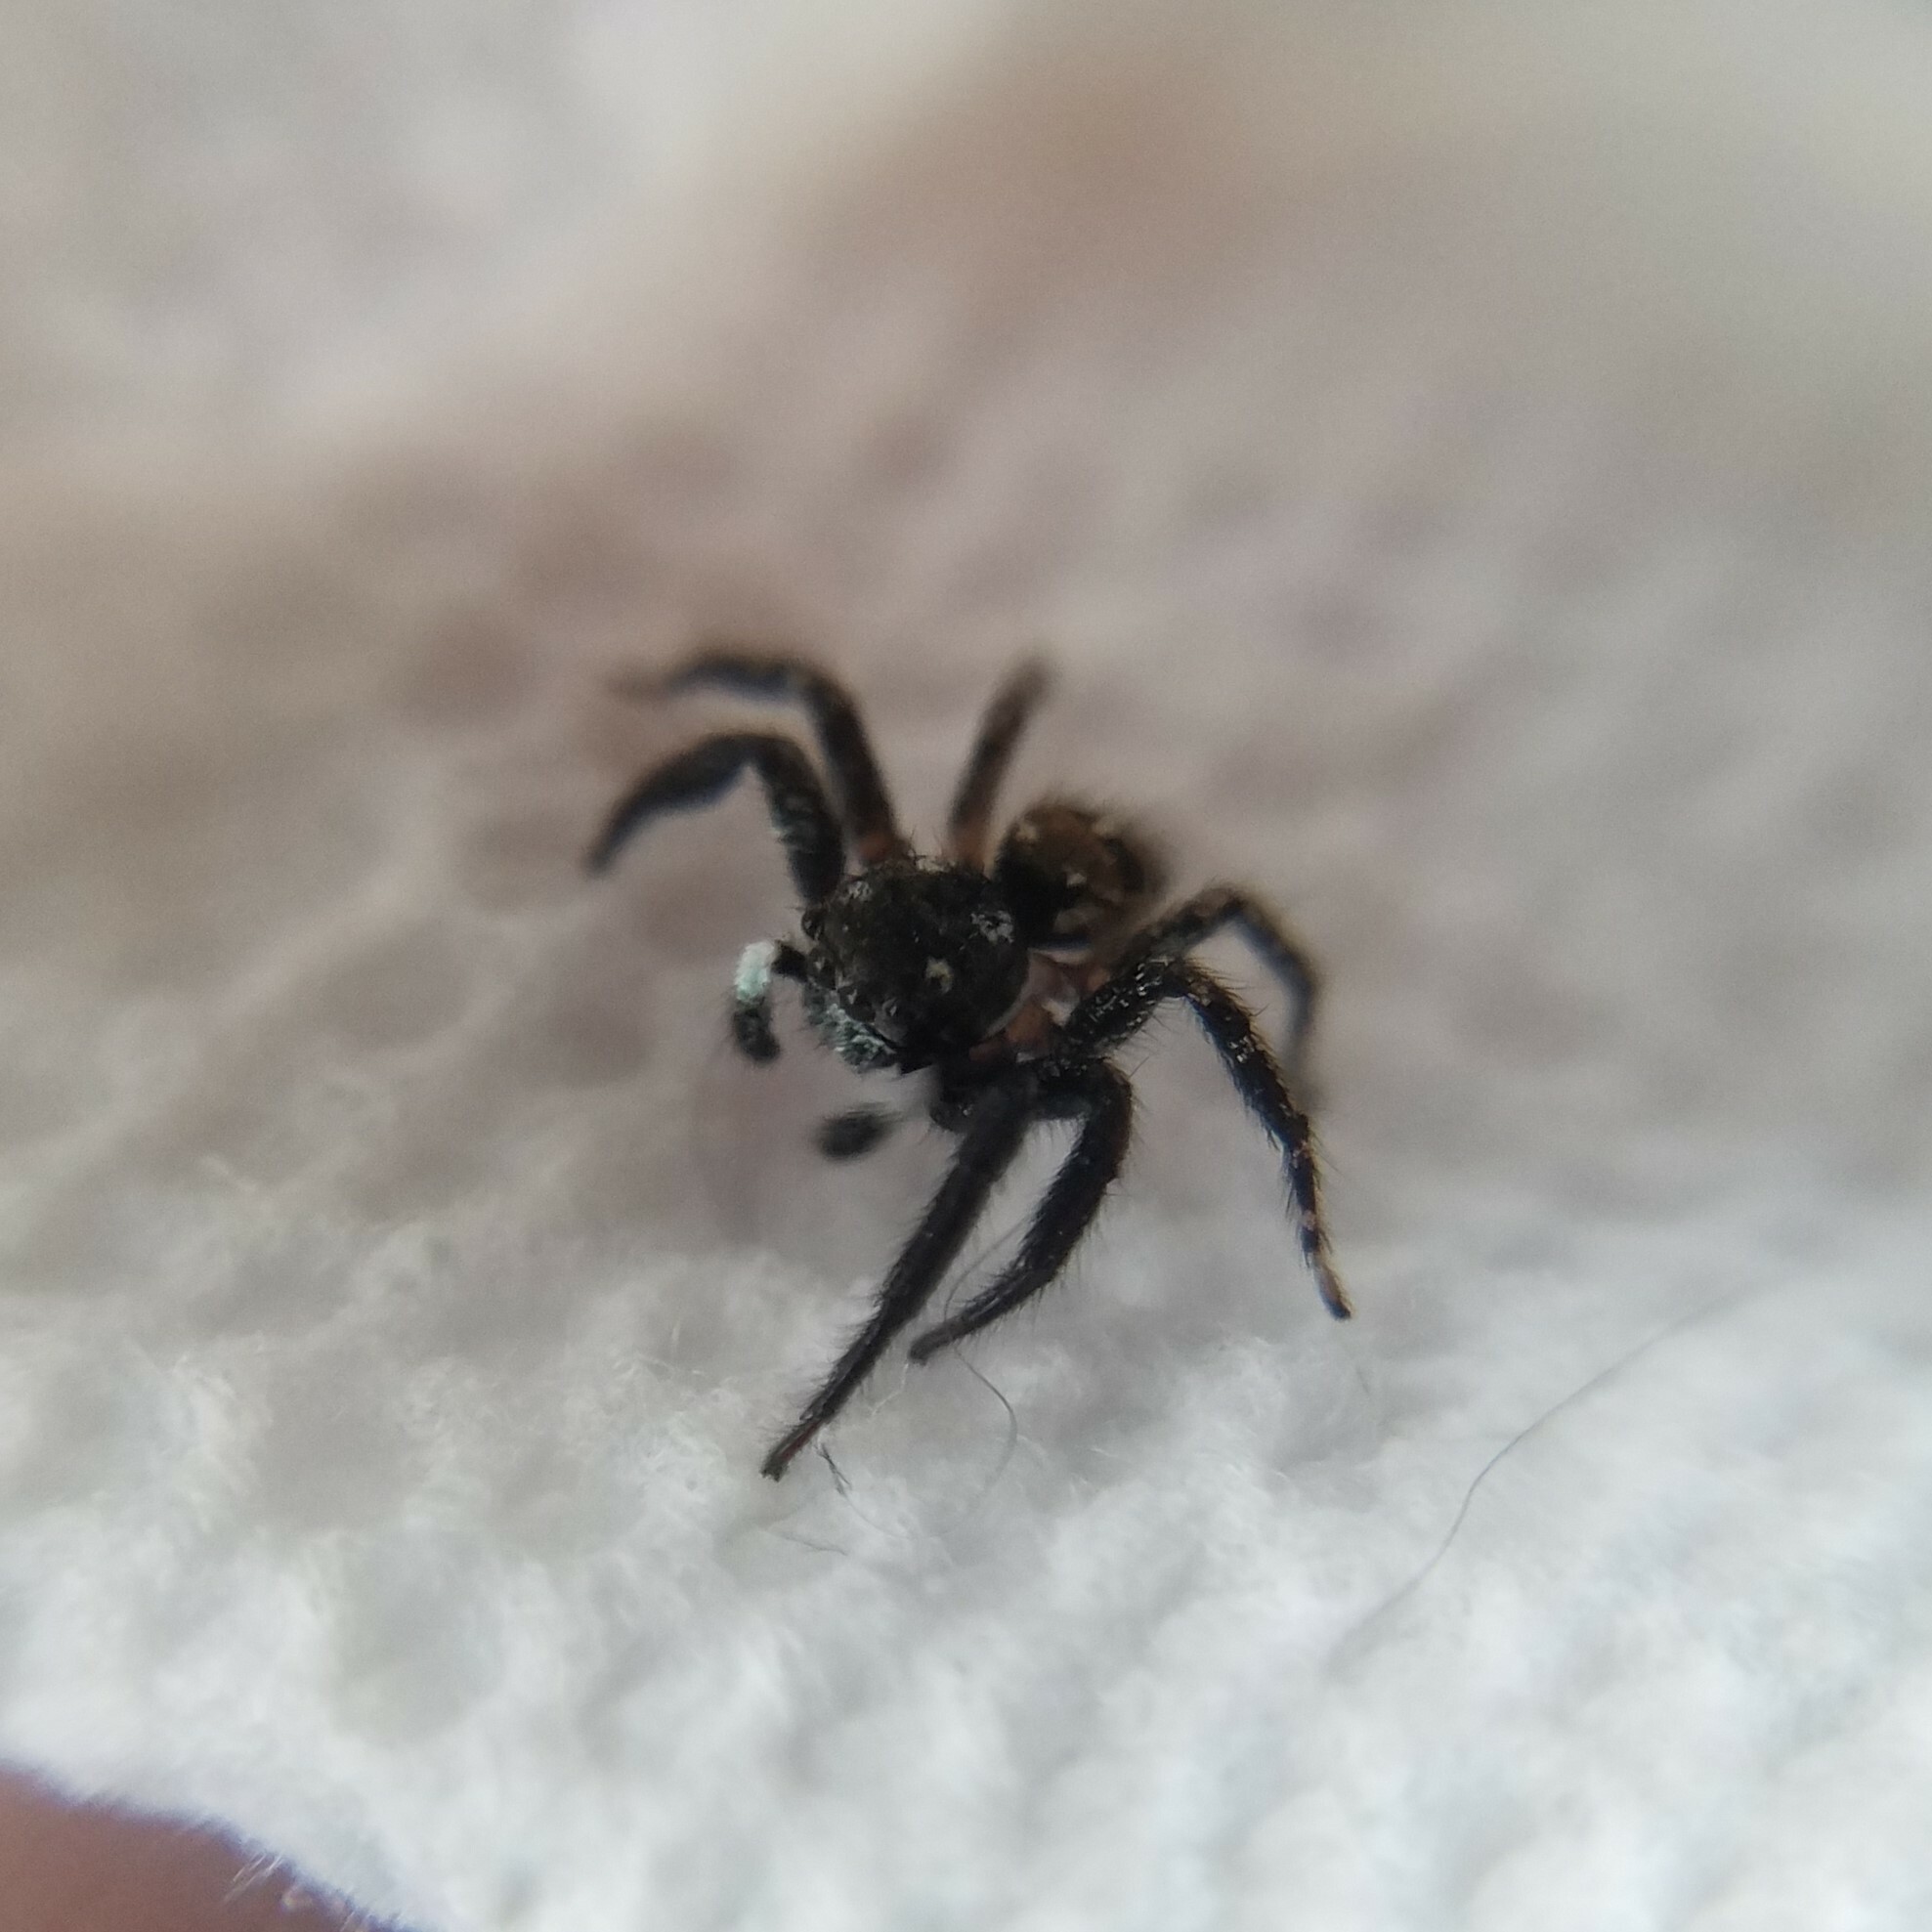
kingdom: Animalia
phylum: Arthropoda
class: Arachnida
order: Araneae
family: Salticidae
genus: Anasaitis
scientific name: Anasaitis canosa
